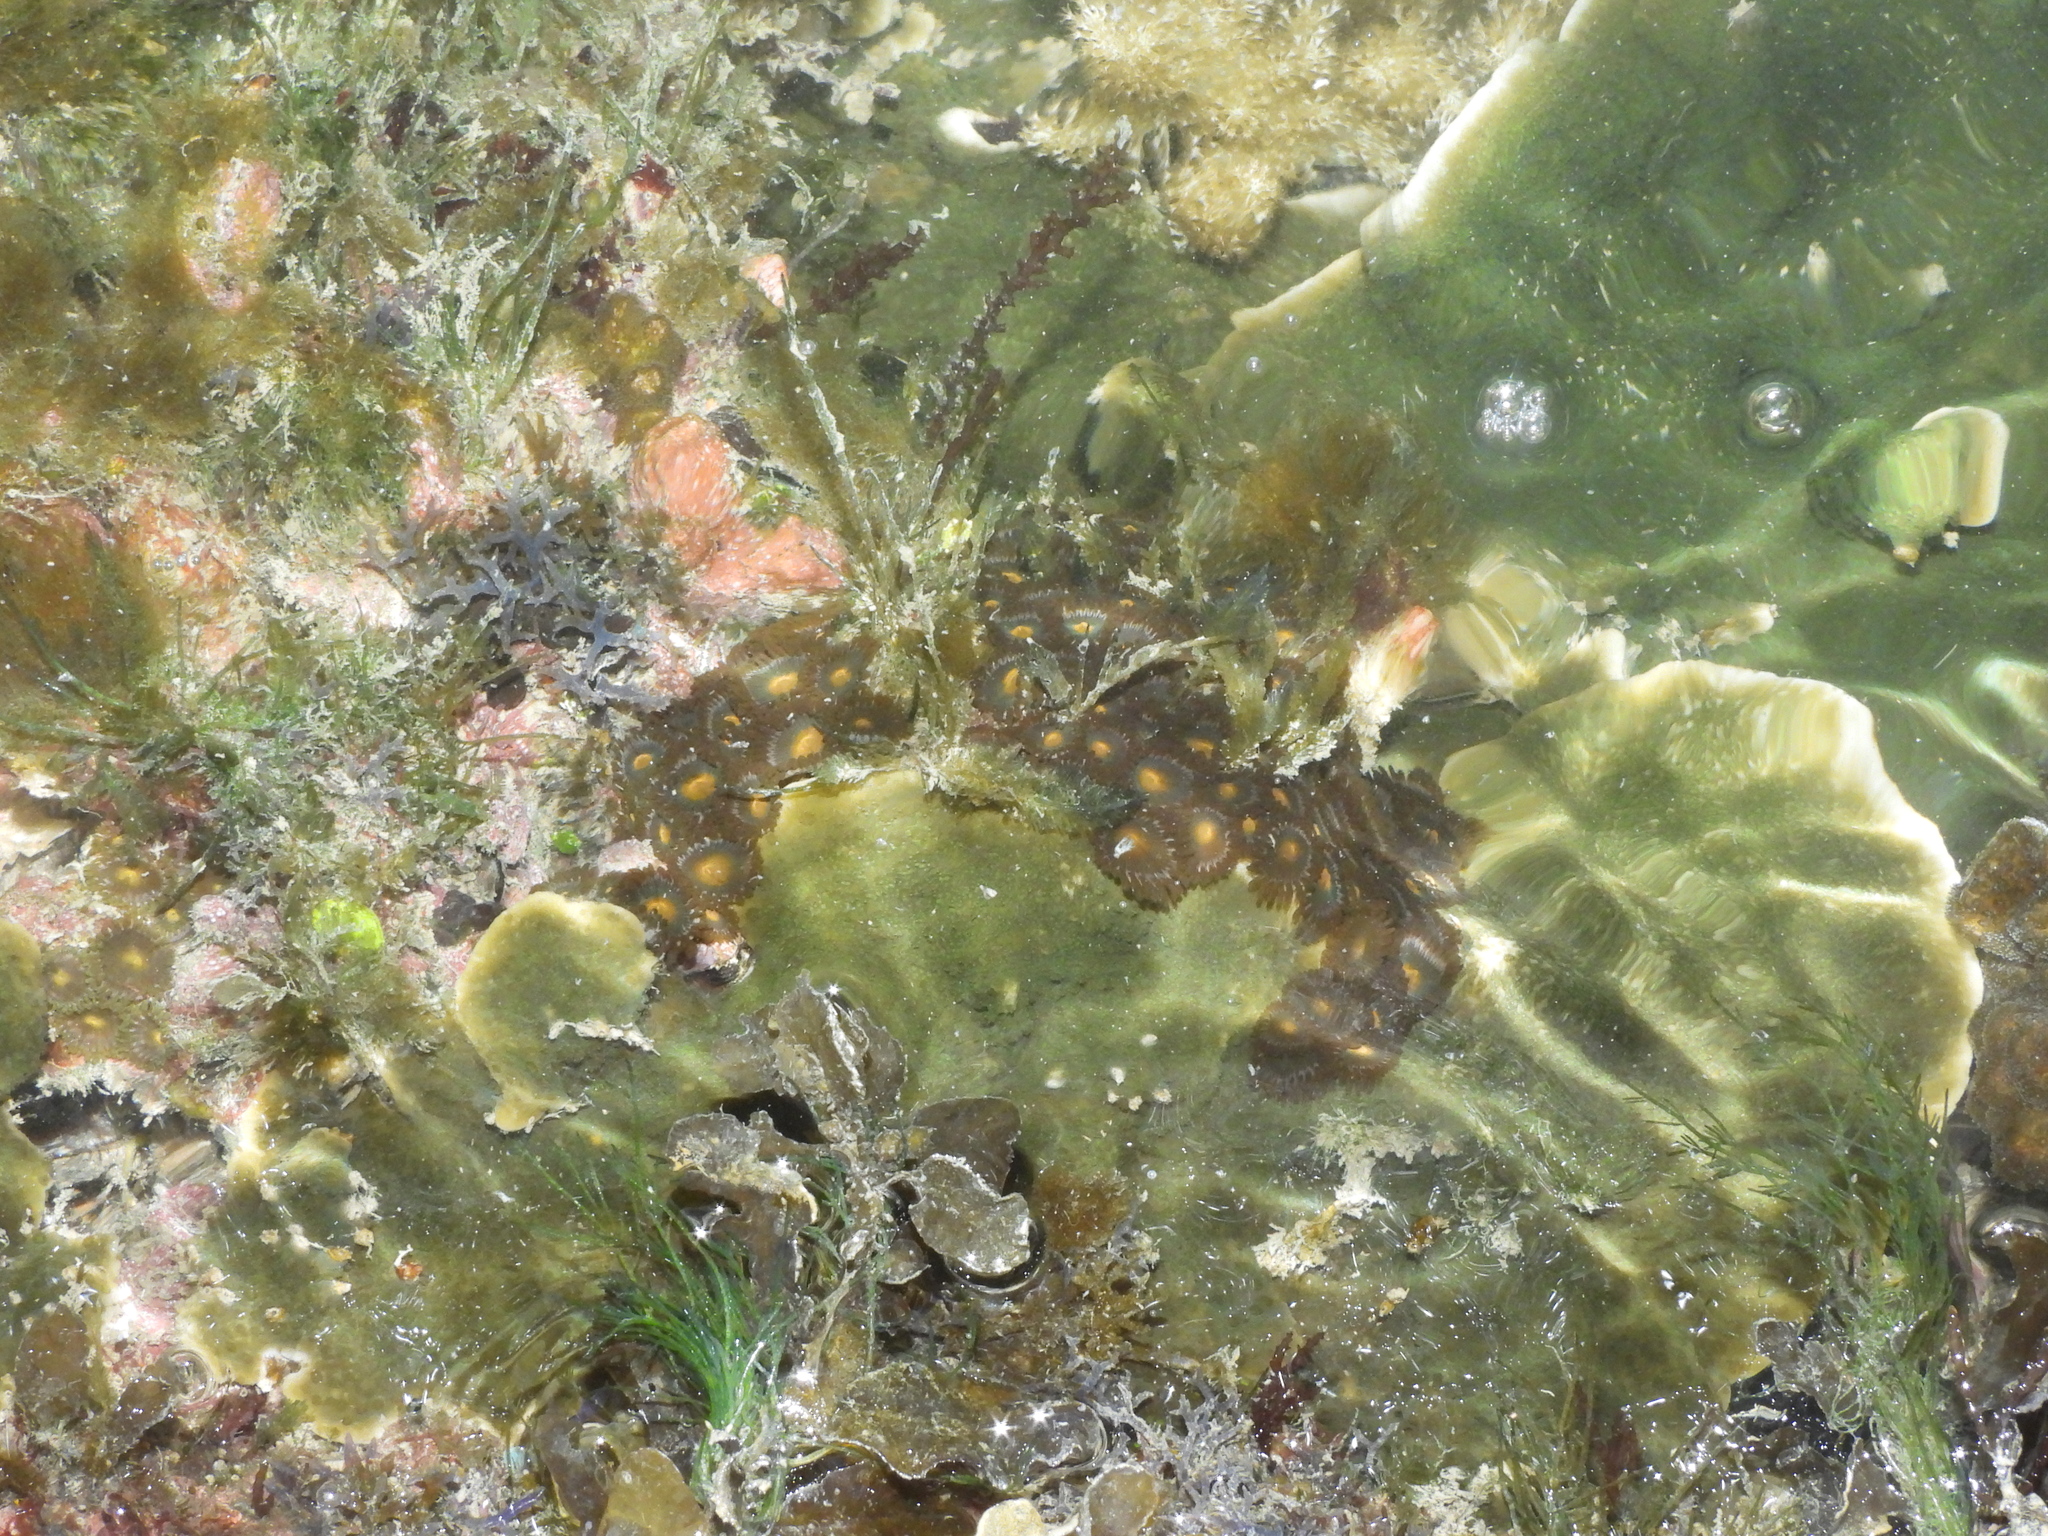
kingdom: Animalia
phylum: Cnidaria
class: Anthozoa
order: Zoantharia
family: Zoanthidae
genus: Zoanthus
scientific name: Zoanthus sansibaricus
